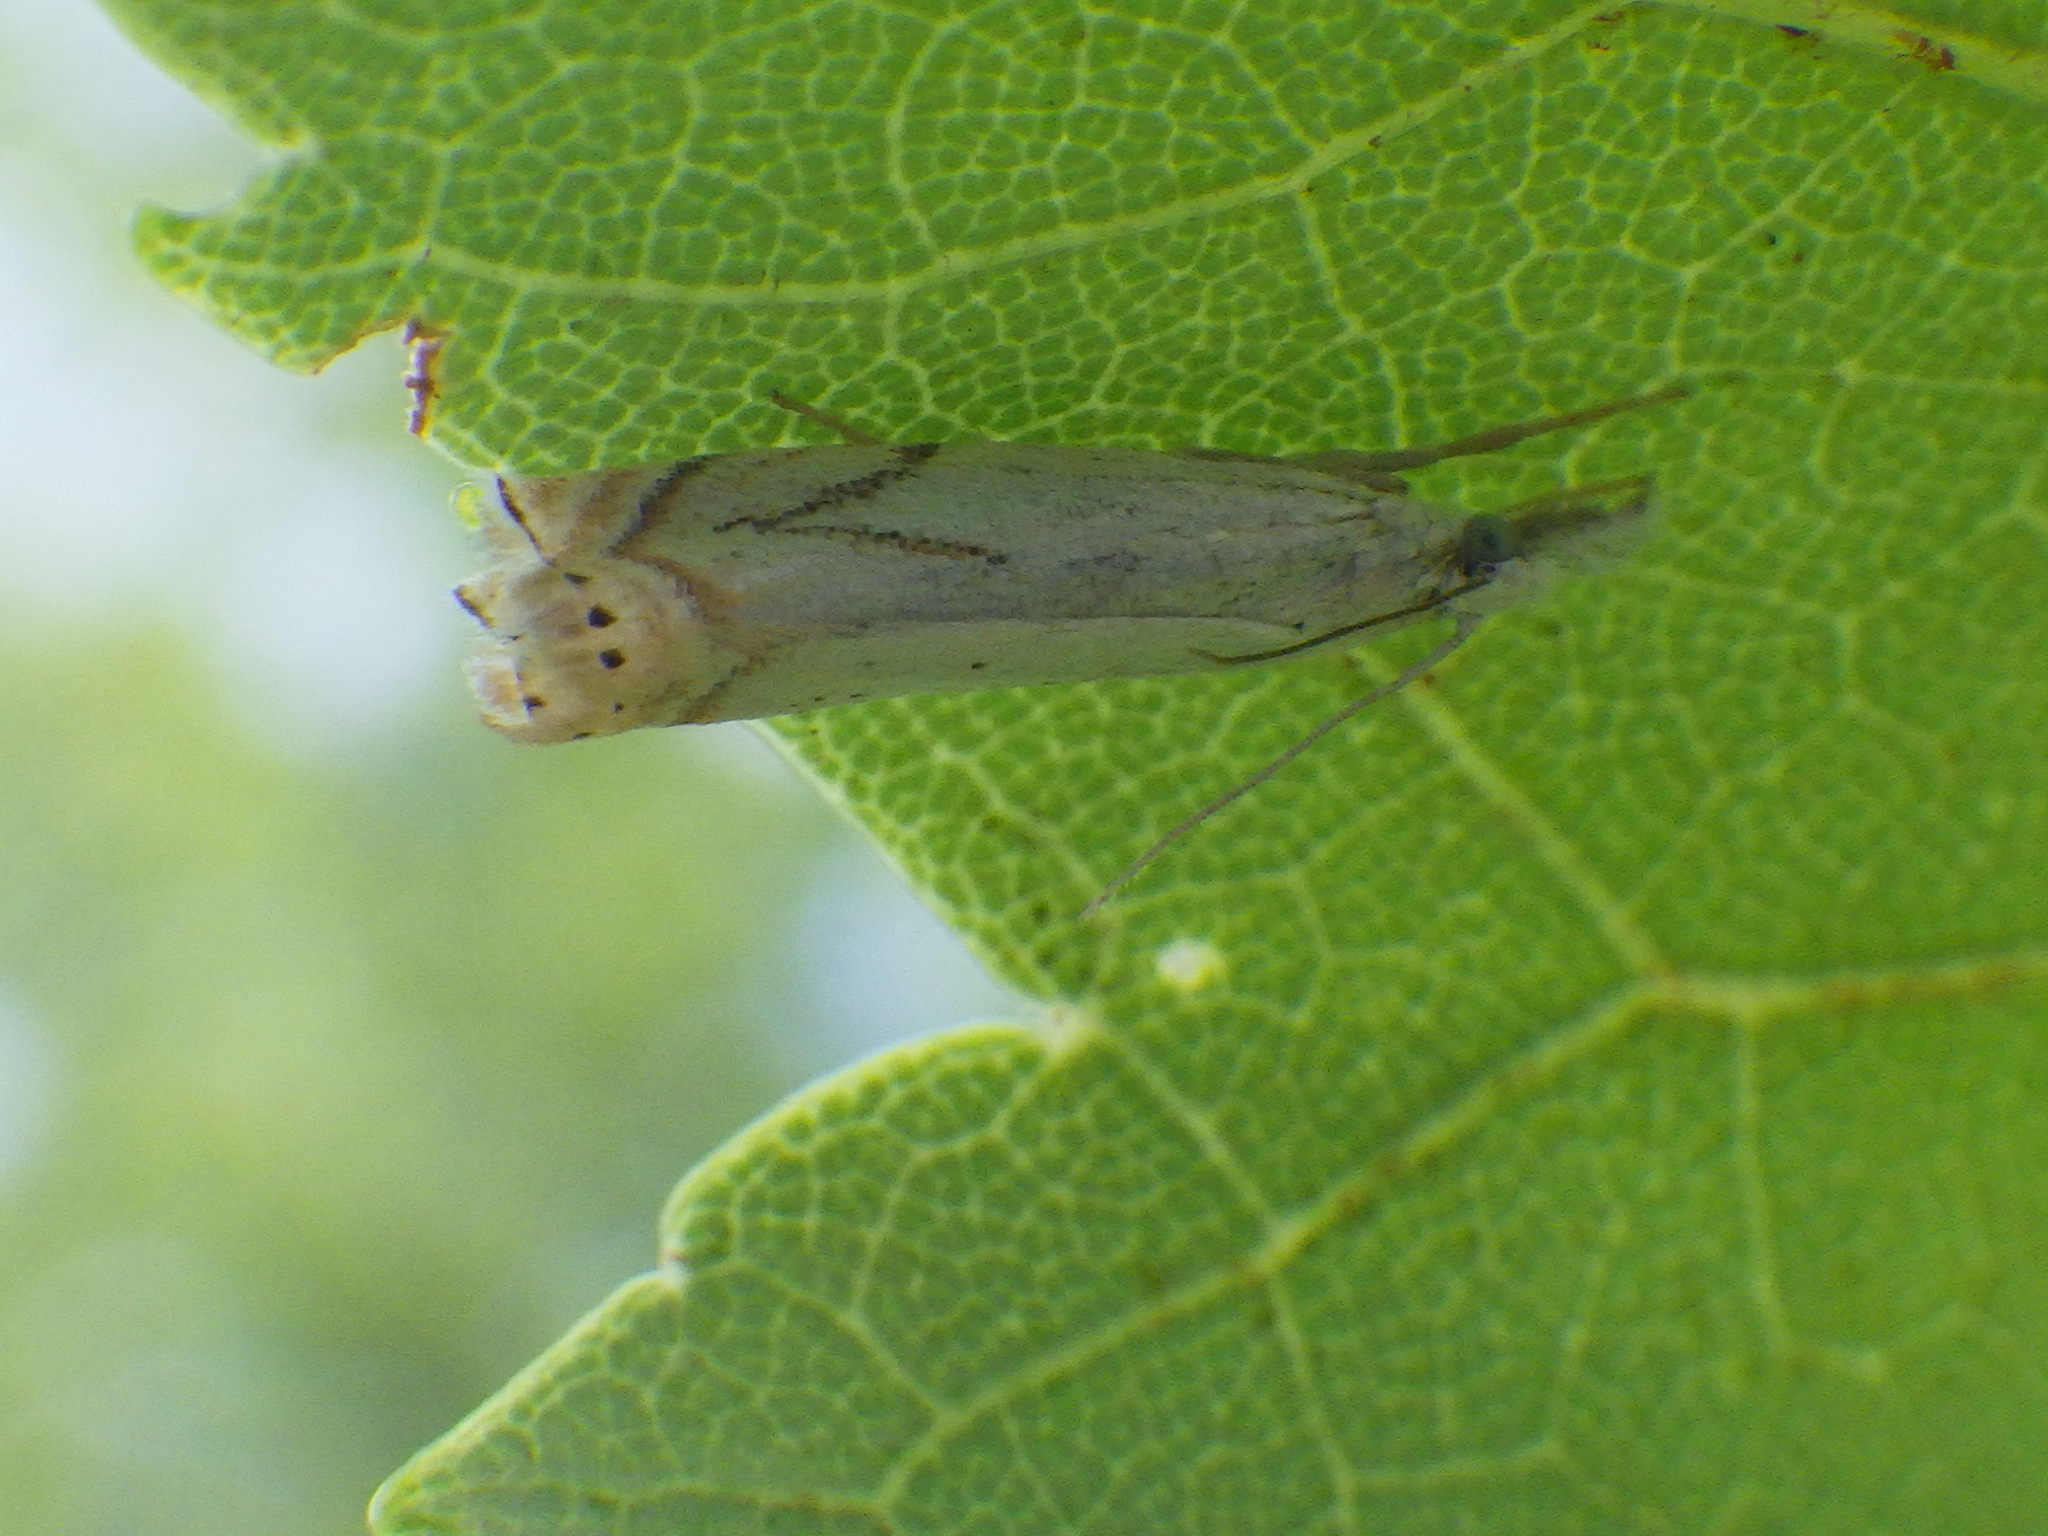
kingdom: Animalia
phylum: Arthropoda
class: Insecta
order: Lepidoptera
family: Crambidae
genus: Crambus
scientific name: Crambus albellus
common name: Small white grass-veneer
